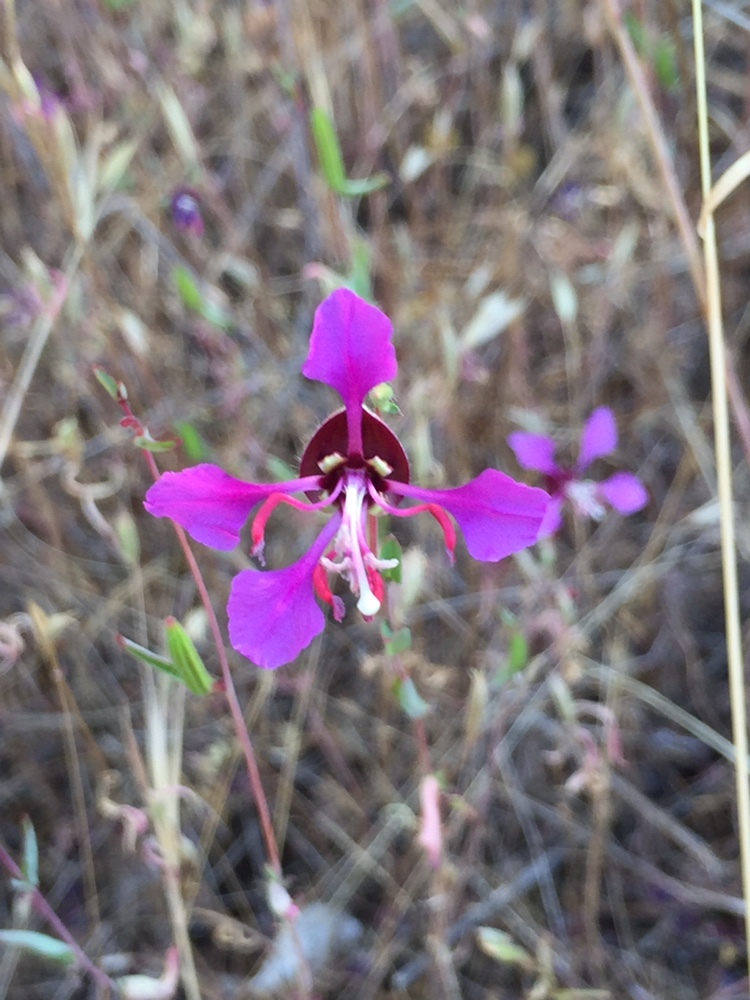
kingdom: Plantae
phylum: Tracheophyta
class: Magnoliopsida
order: Myrtales
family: Onagraceae
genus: Clarkia
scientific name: Clarkia unguiculata
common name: Clarkia
